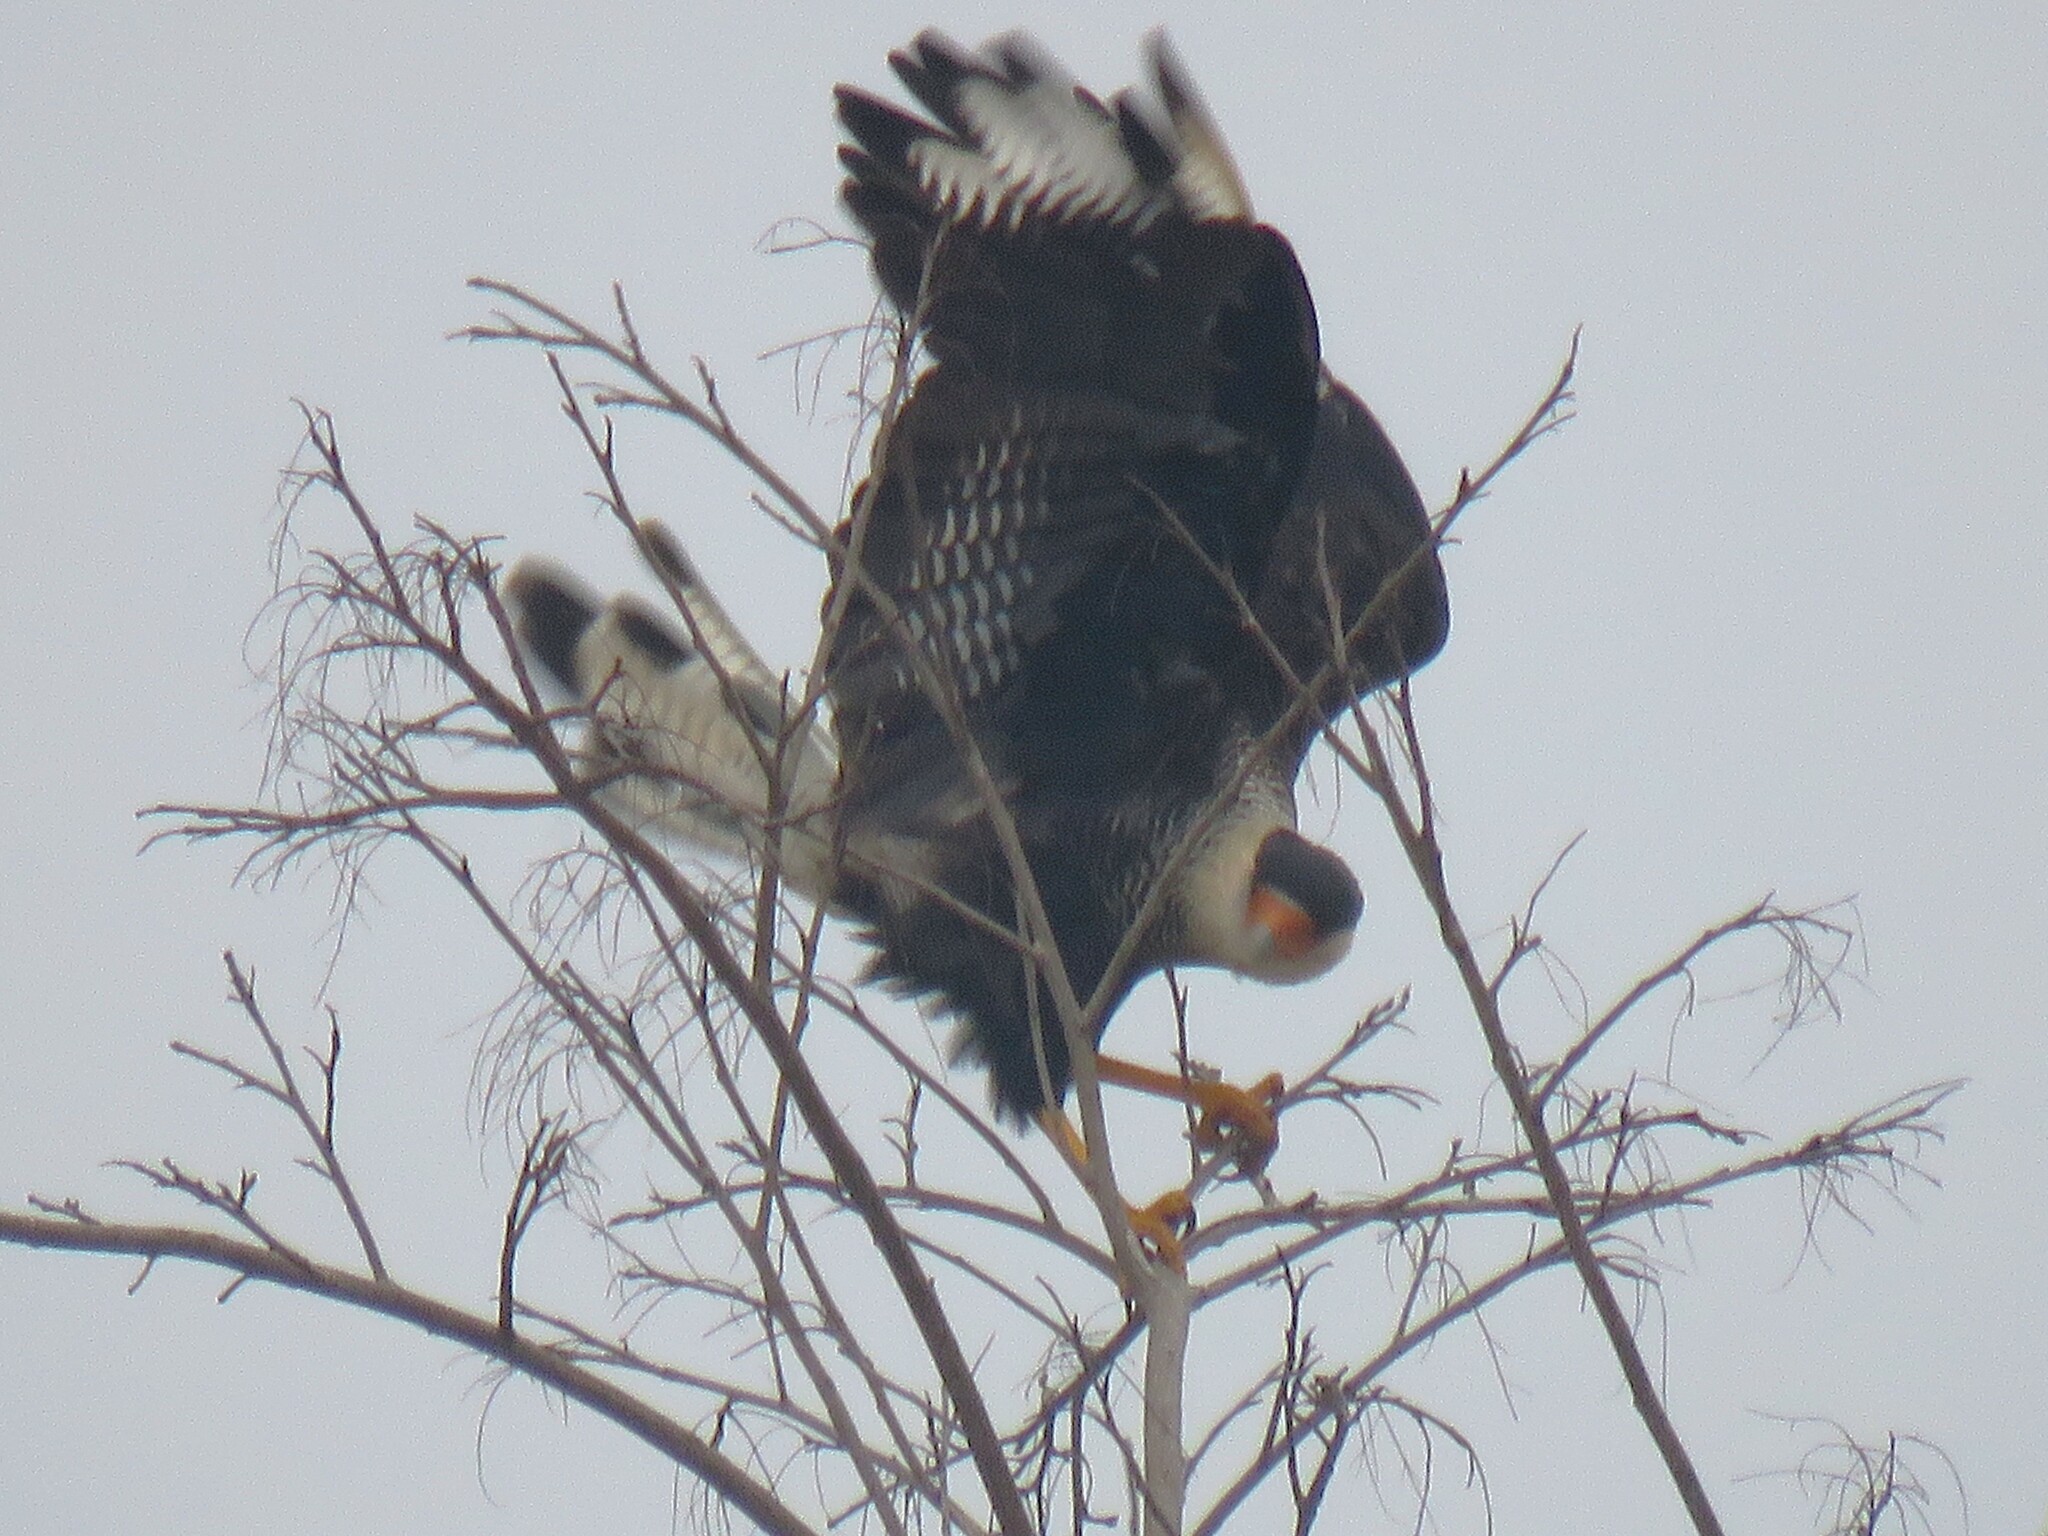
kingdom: Animalia
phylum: Chordata
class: Aves
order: Falconiformes
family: Falconidae
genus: Caracara
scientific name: Caracara plancus
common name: Southern caracara
